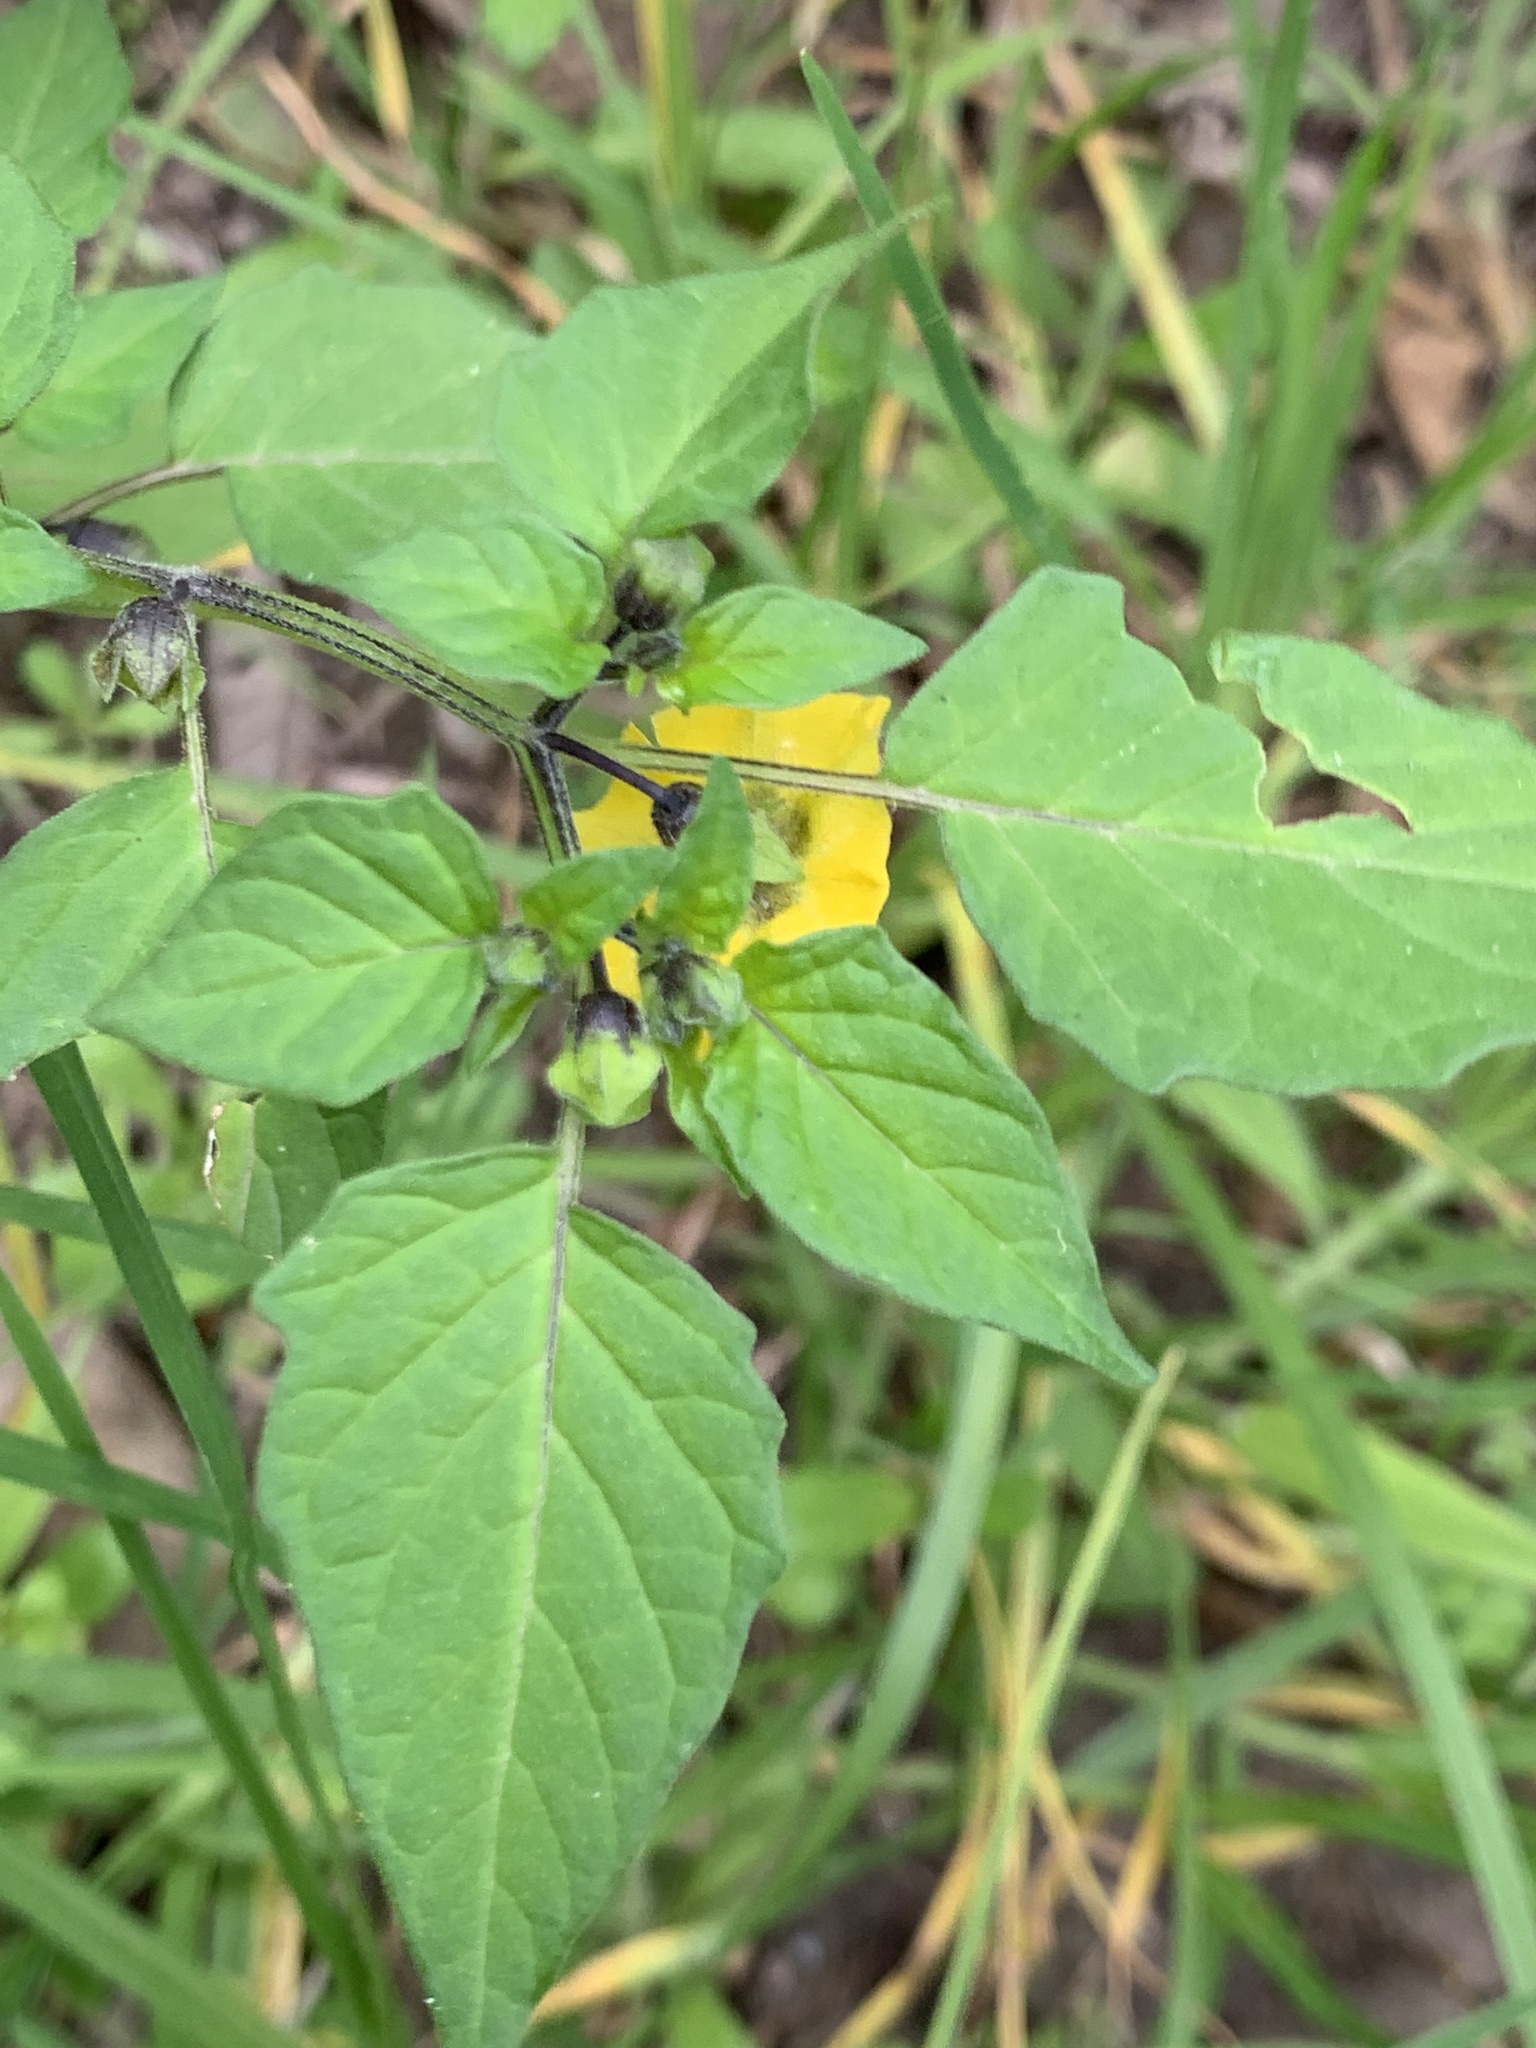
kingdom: Plantae
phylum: Tracheophyta
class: Magnoliopsida
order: Solanales
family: Solanaceae
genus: Physalis
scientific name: Physalis philadelphica
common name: Husk-tomato
